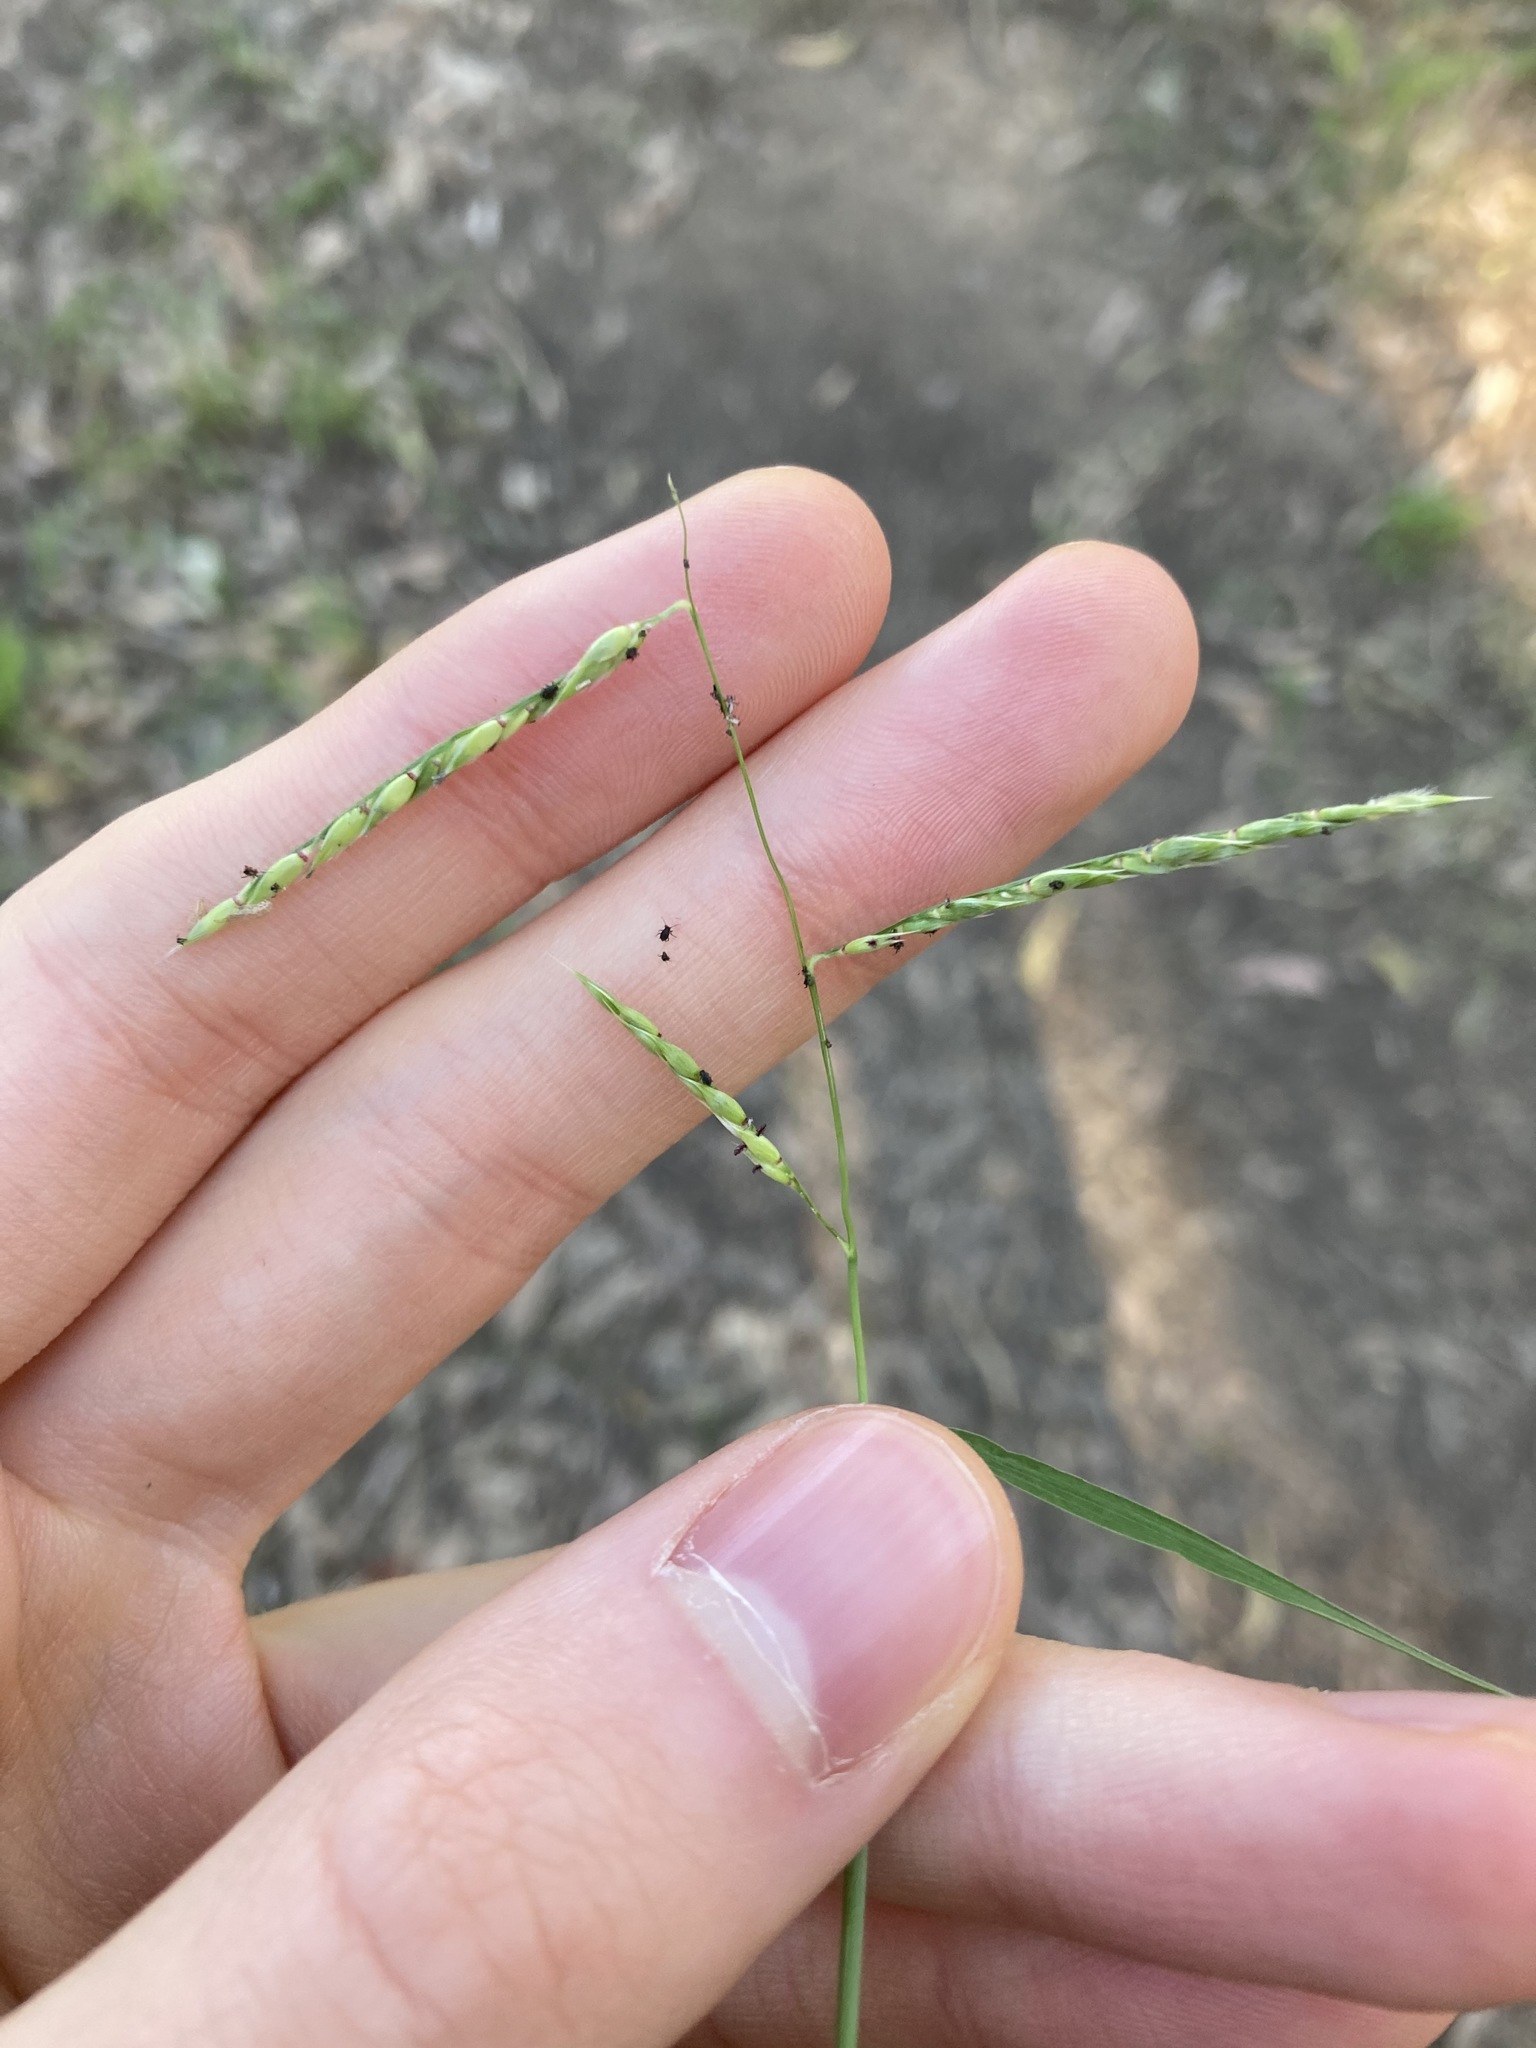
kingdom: Plantae
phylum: Tracheophyta
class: Liliopsida
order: Poales
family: Poaceae
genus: Eriochloa
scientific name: Eriochloa pseudoacrotricha
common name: Perennial cup-grass
